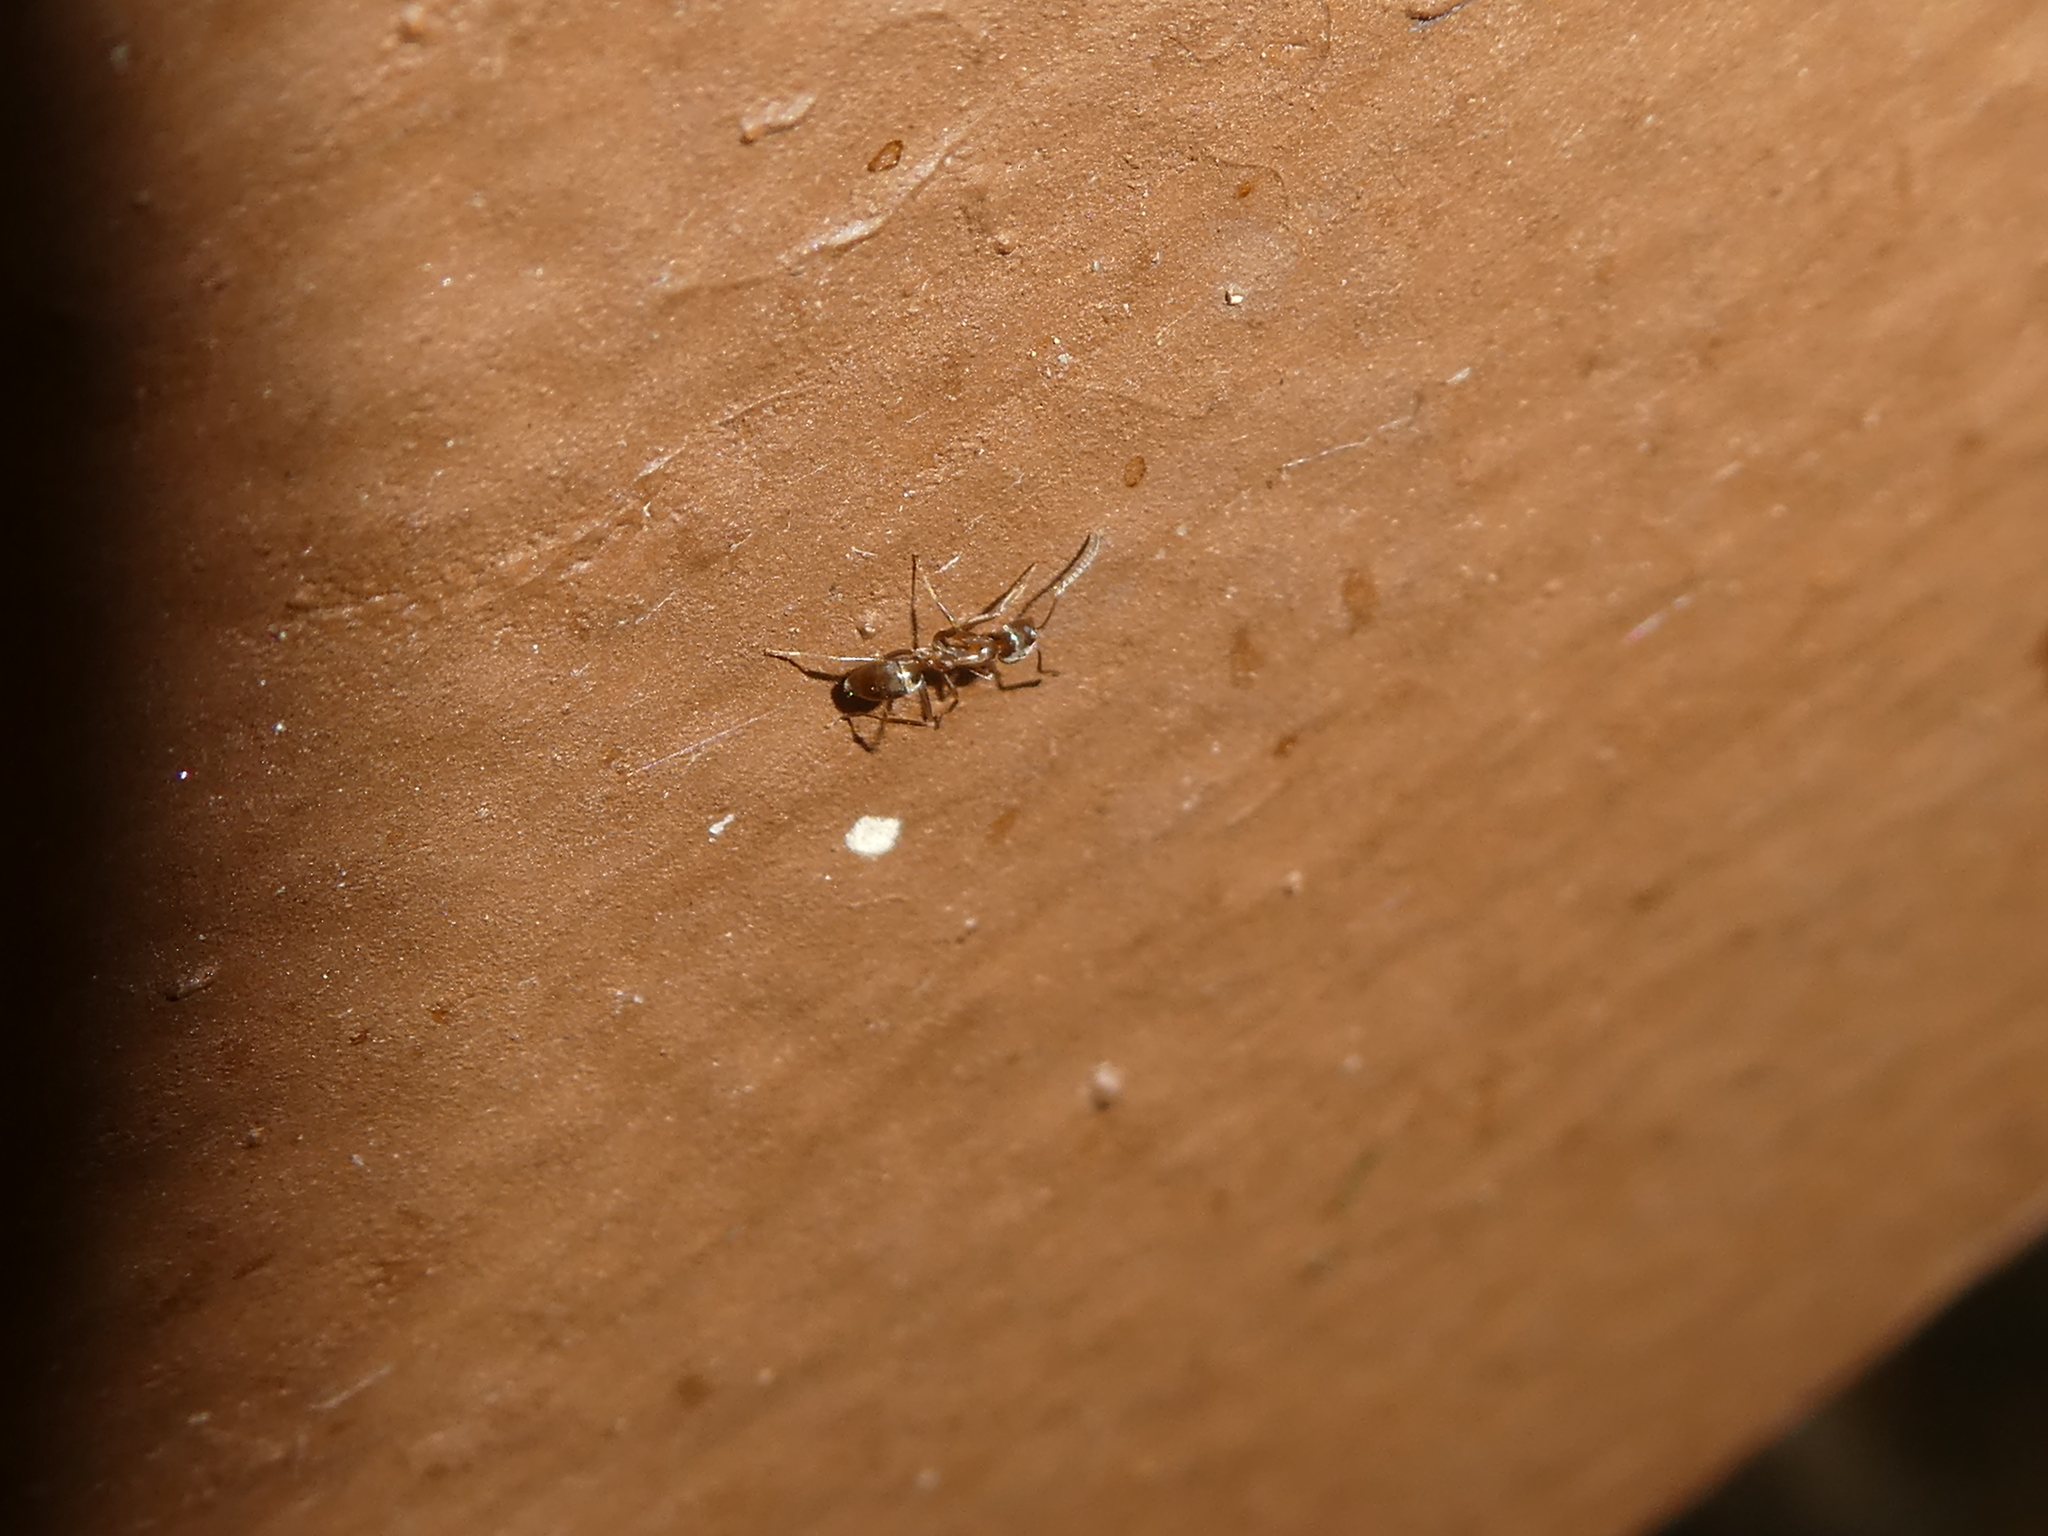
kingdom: Animalia
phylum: Arthropoda
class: Insecta
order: Hymenoptera
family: Formicidae
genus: Linepithema
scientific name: Linepithema humile
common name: Argentine ant
